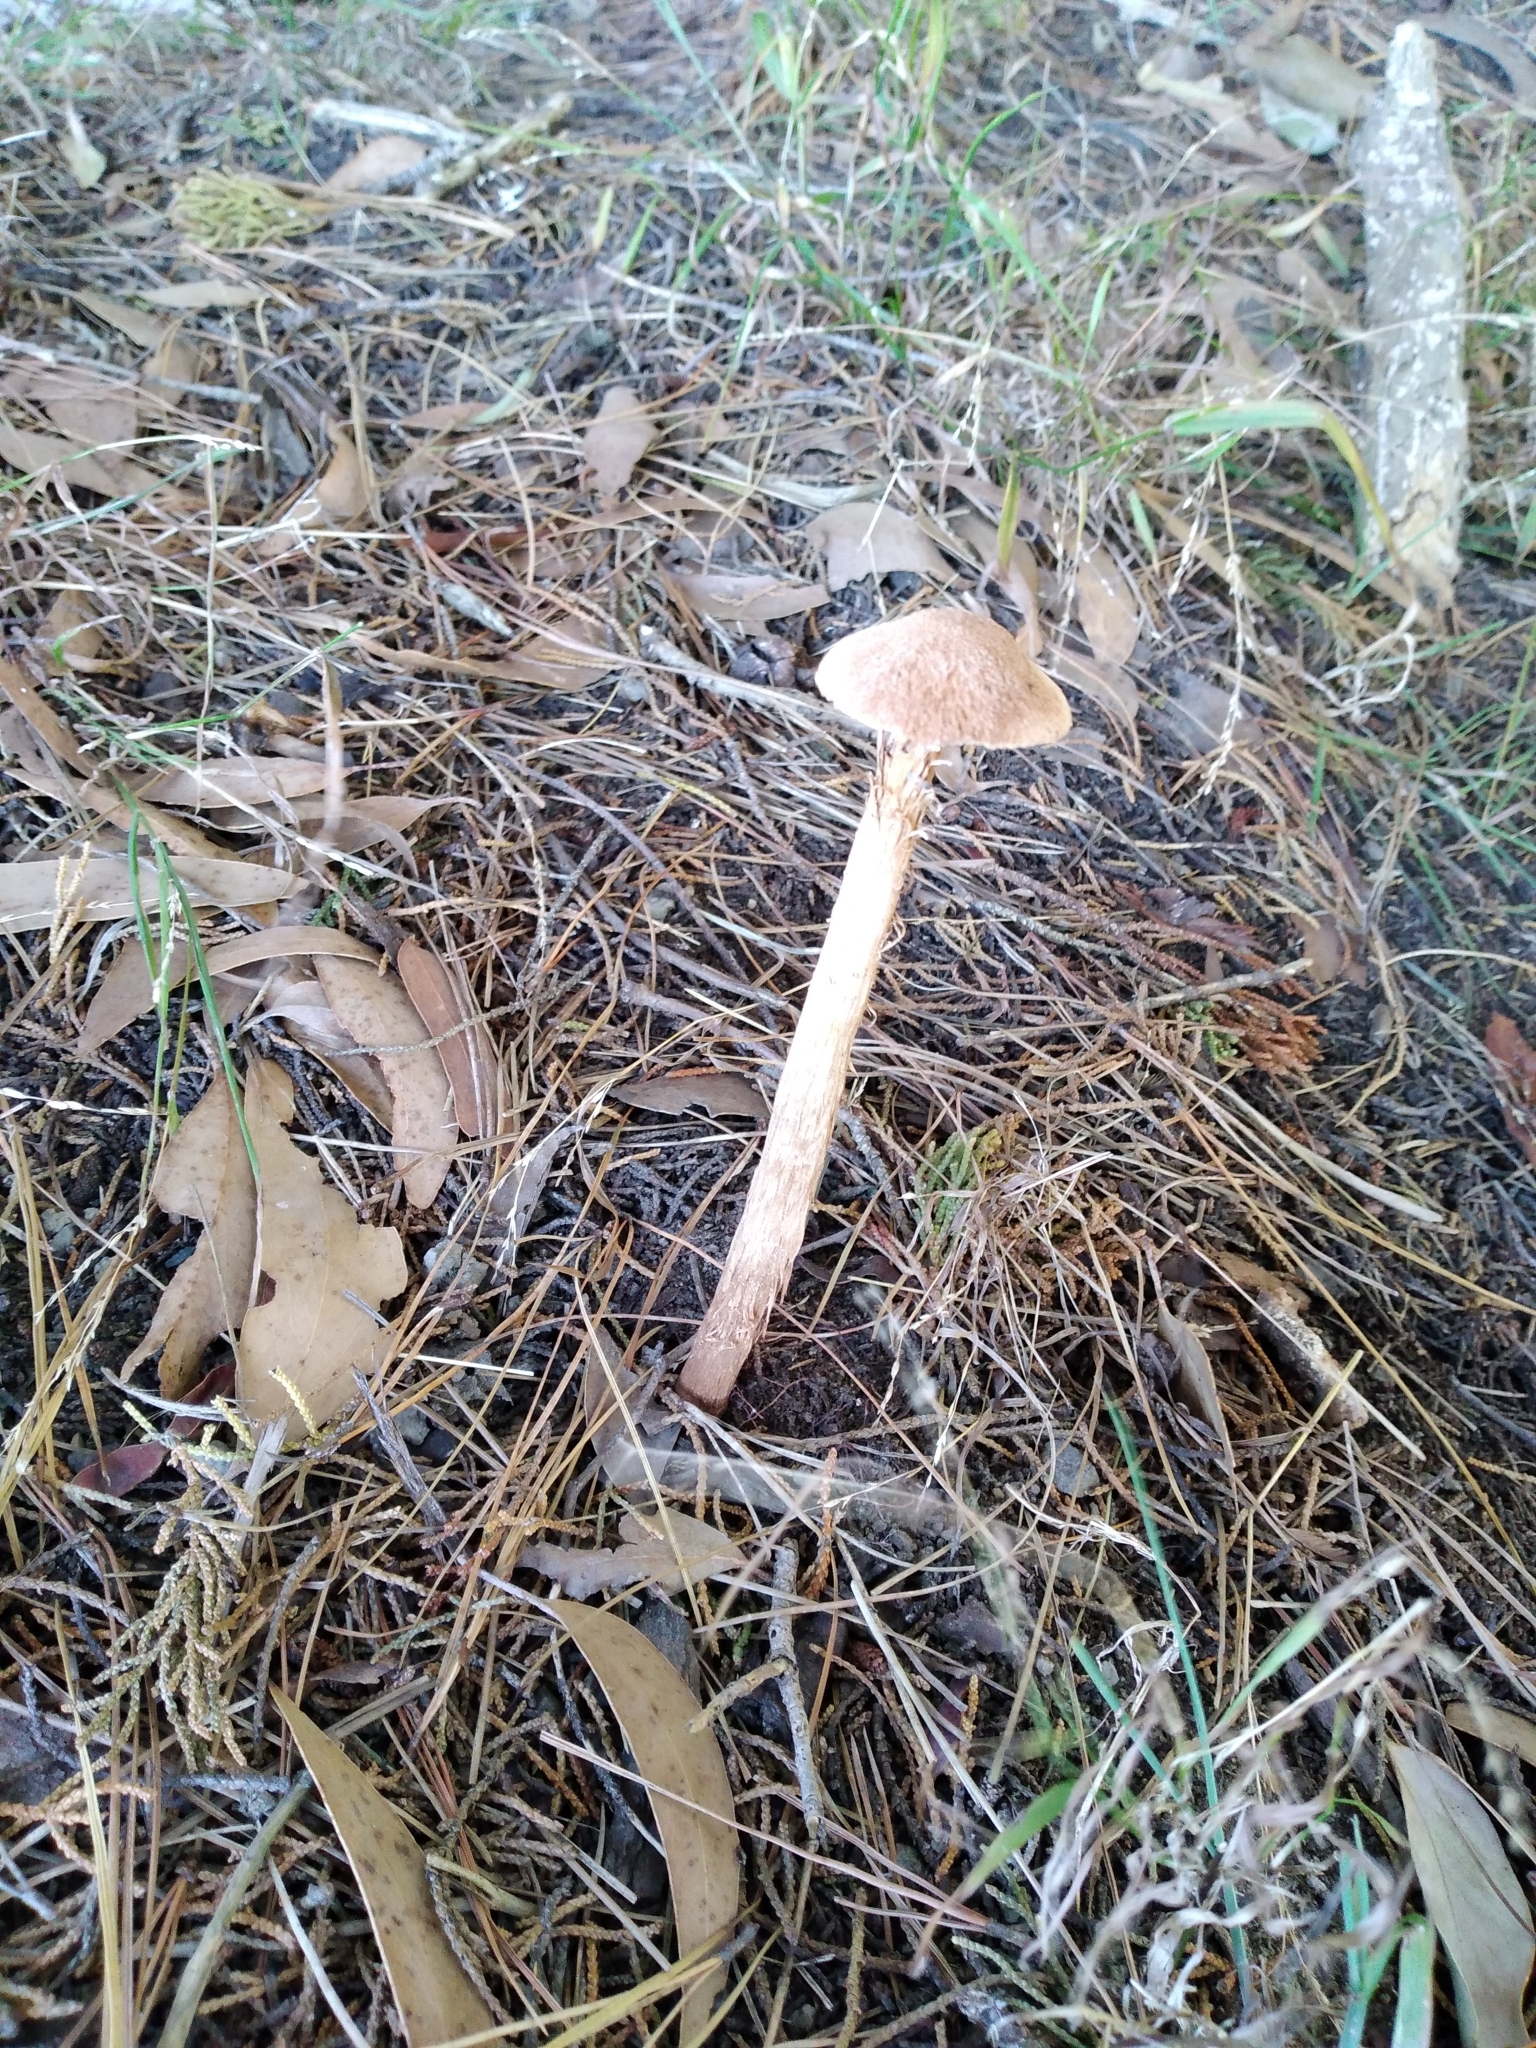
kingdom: Fungi
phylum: Basidiomycota
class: Agaricomycetes
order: Agaricales
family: Agaricaceae
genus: Battarrea
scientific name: Battarrea phalloides
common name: Sandy stiltball
